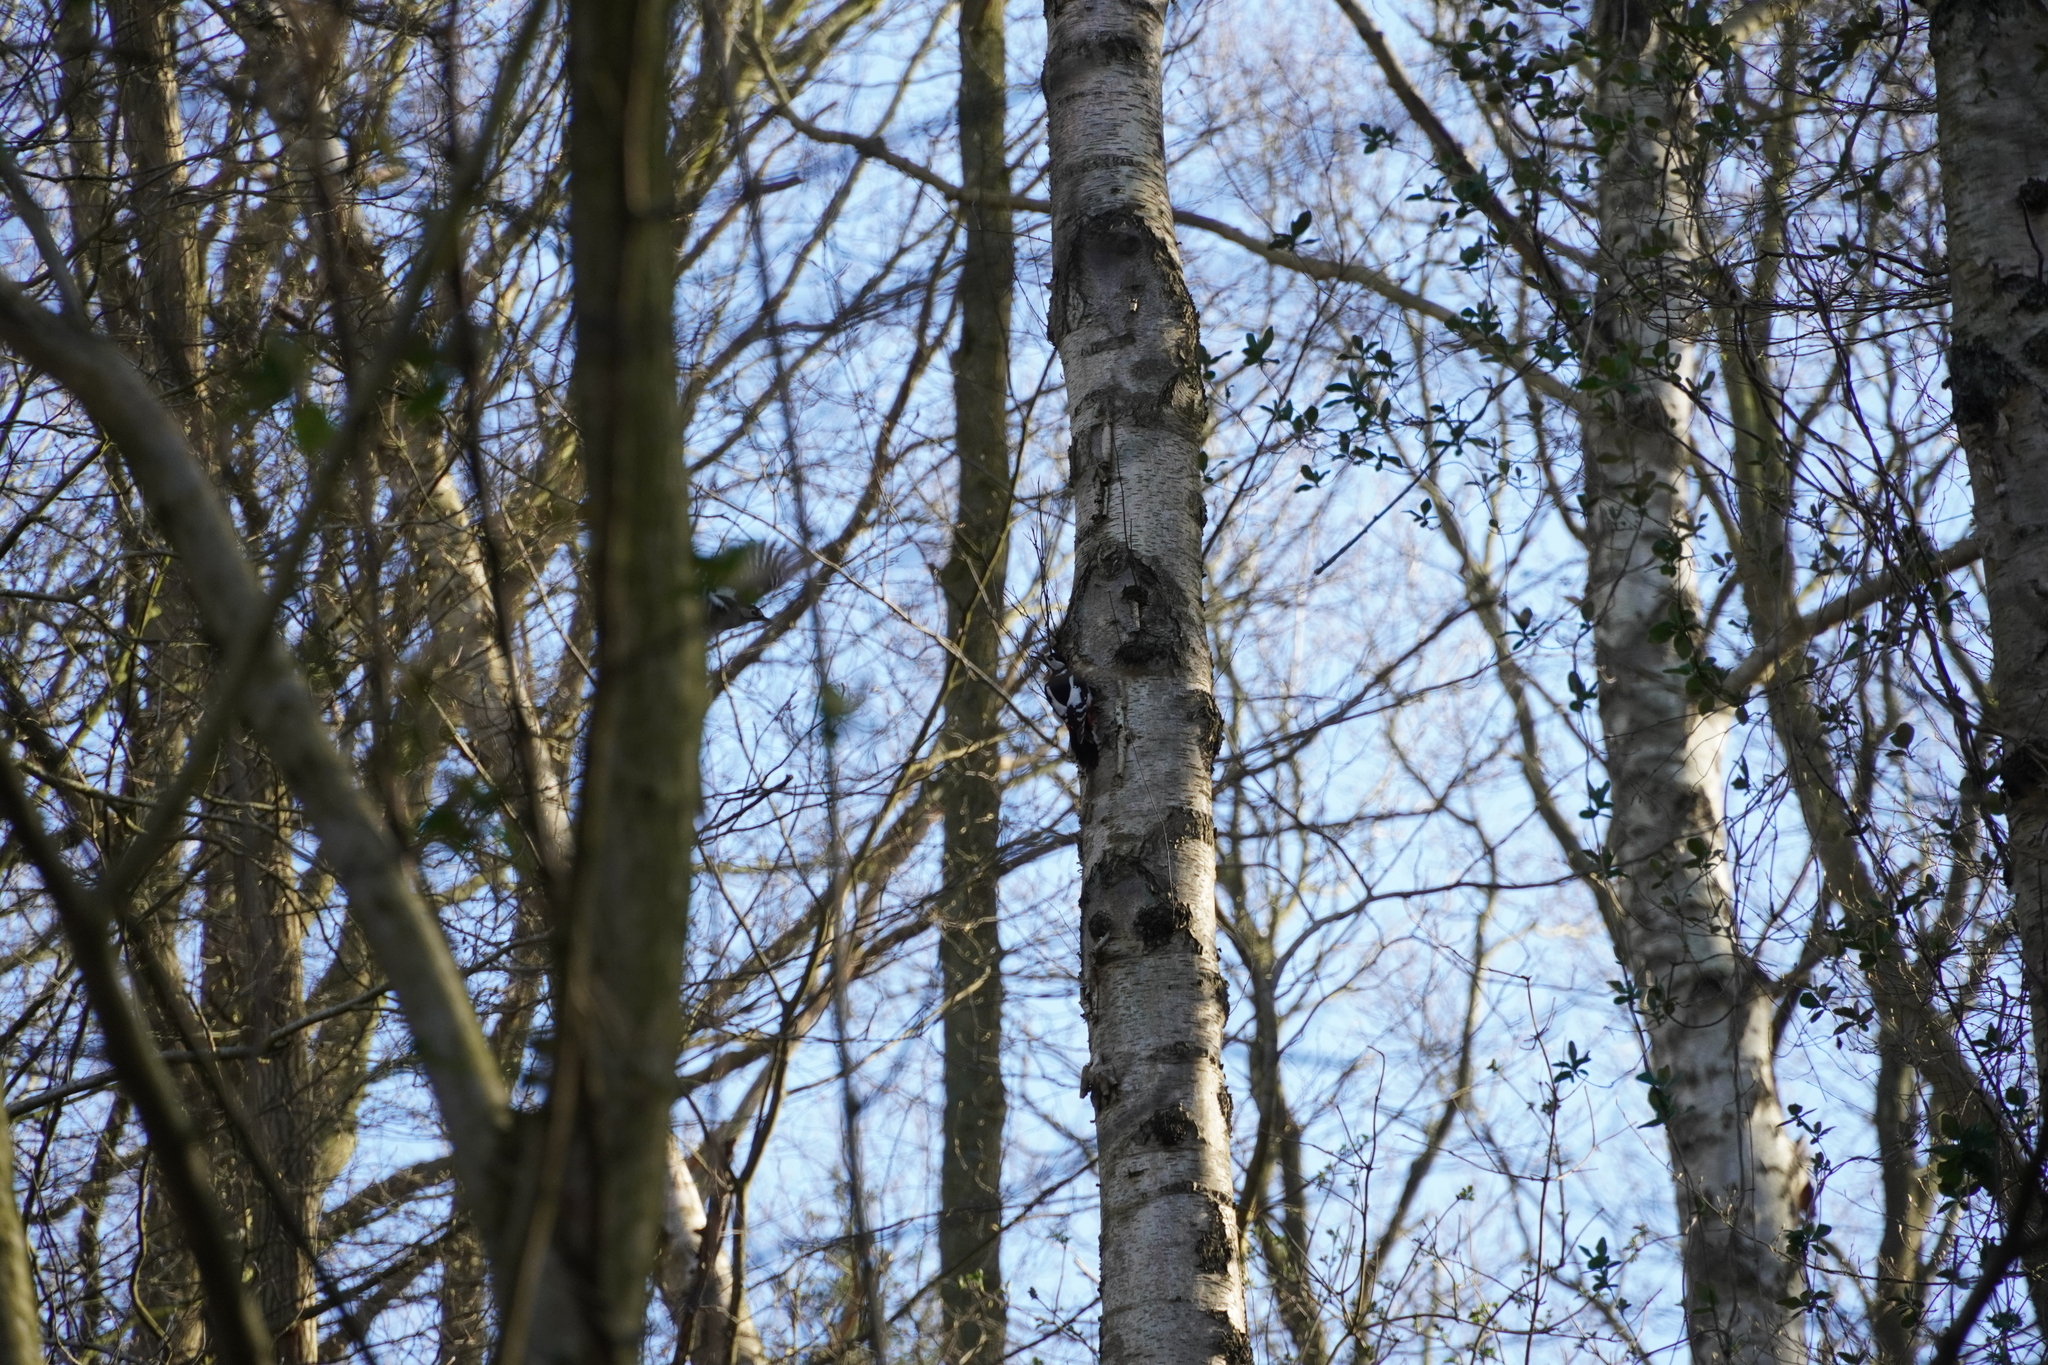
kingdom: Animalia
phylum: Chordata
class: Aves
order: Piciformes
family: Picidae
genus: Dendrocopos
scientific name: Dendrocopos major
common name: Great spotted woodpecker
